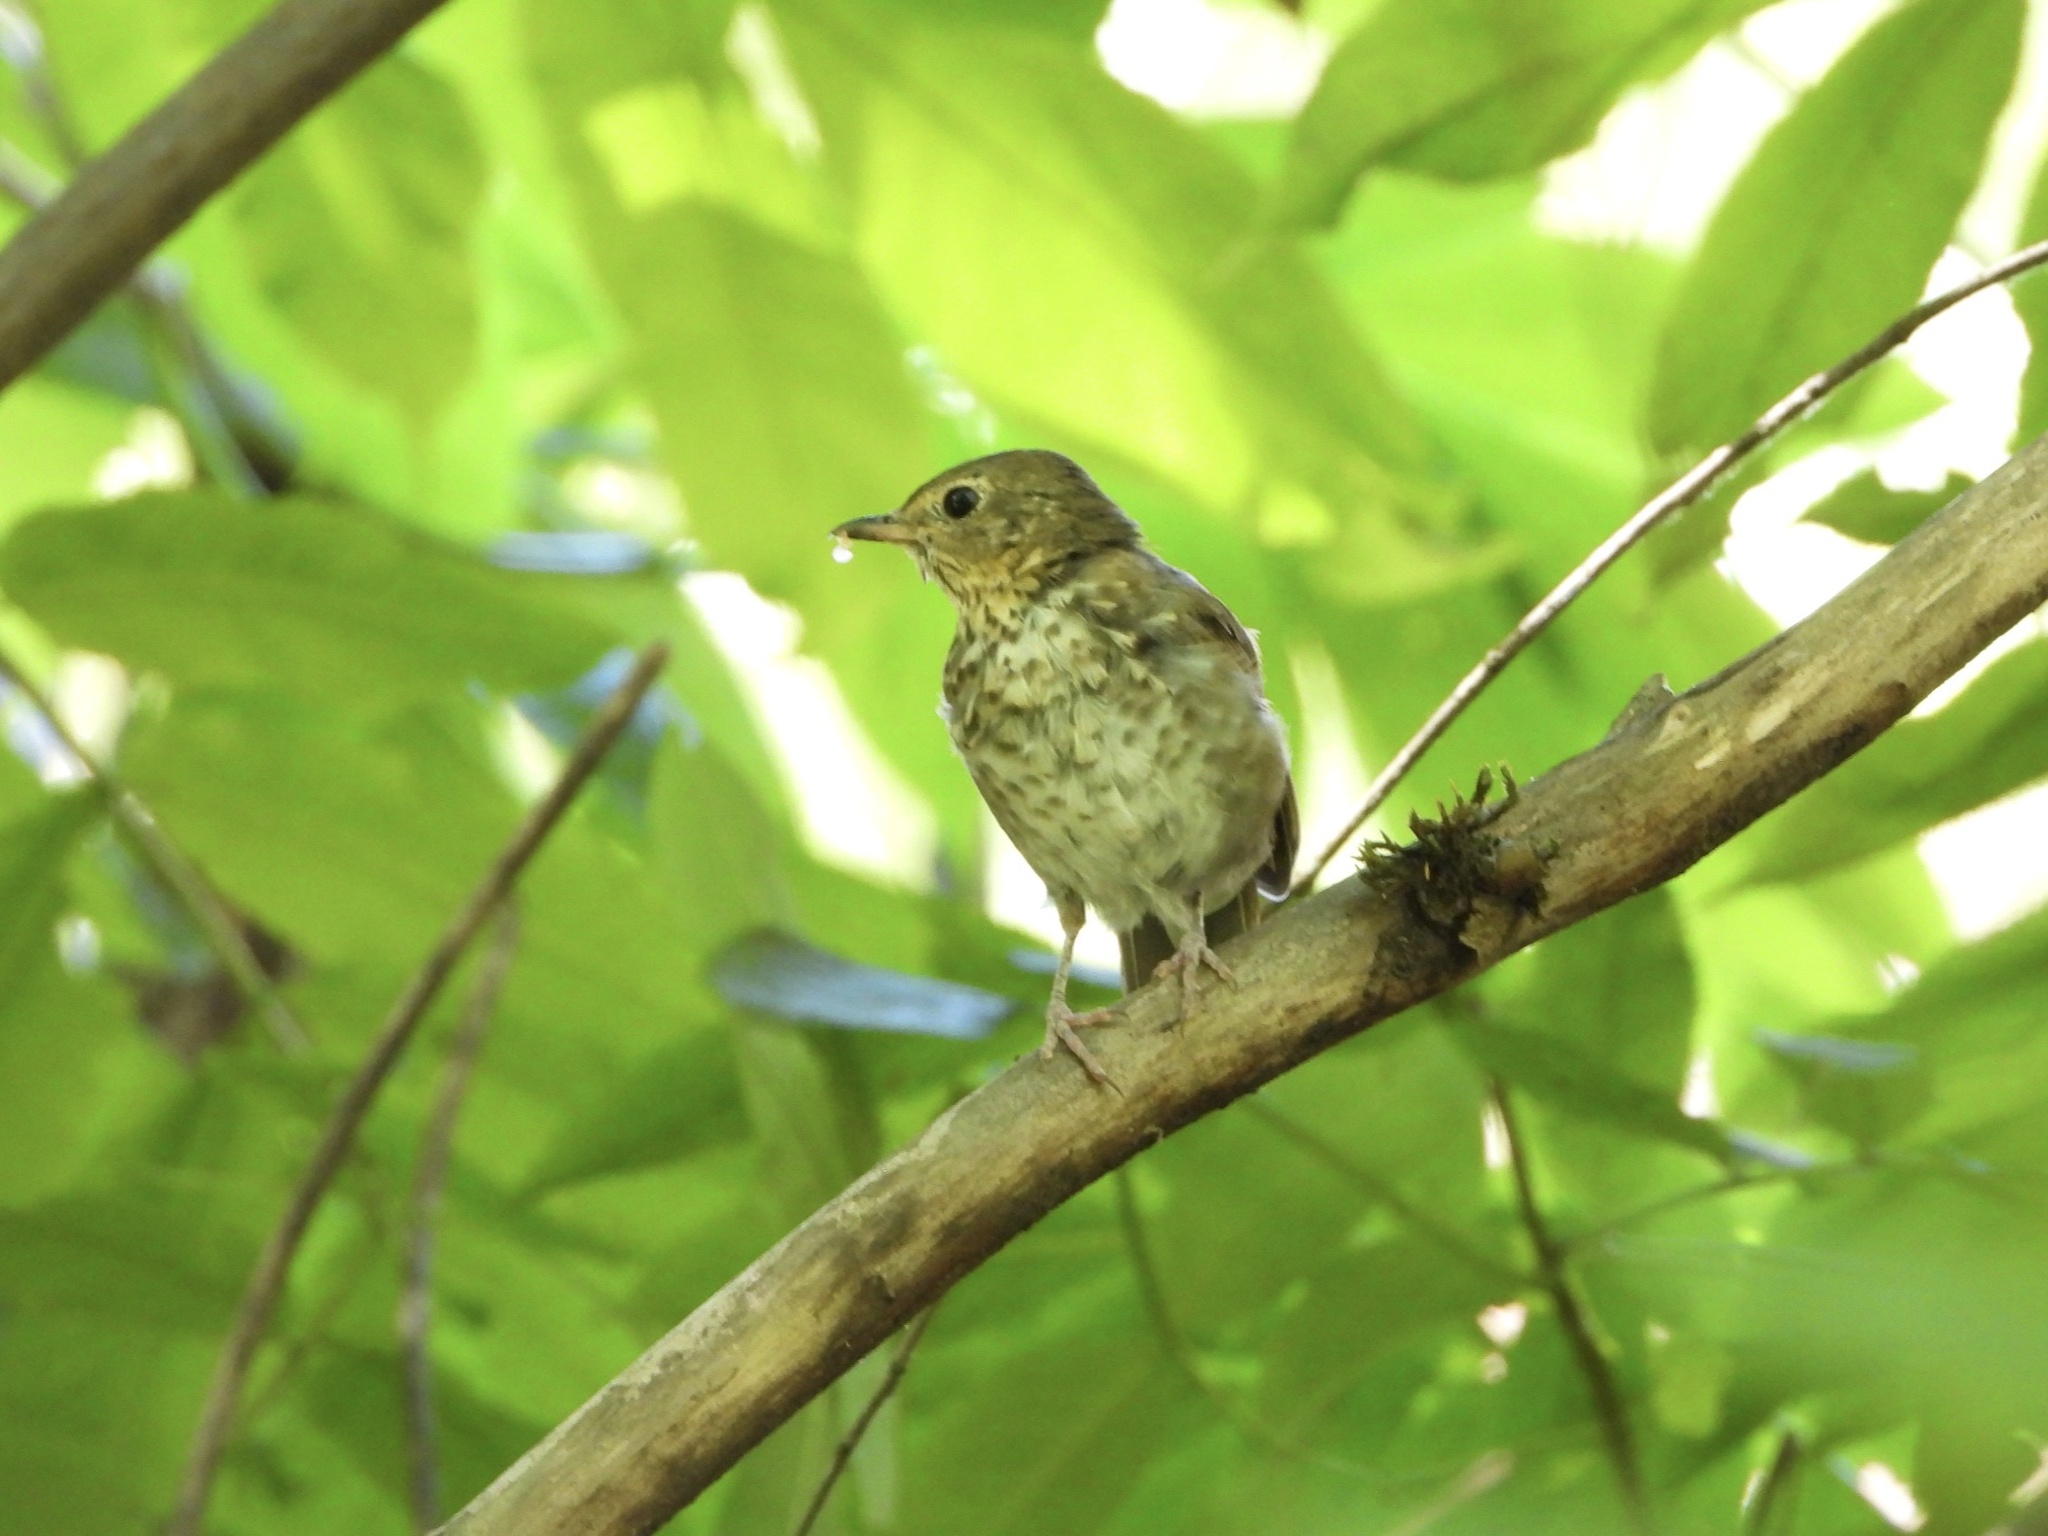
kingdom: Animalia
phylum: Chordata
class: Aves
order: Passeriformes
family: Turdidae
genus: Catharus
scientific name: Catharus ustulatus
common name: Swainson's thrush
